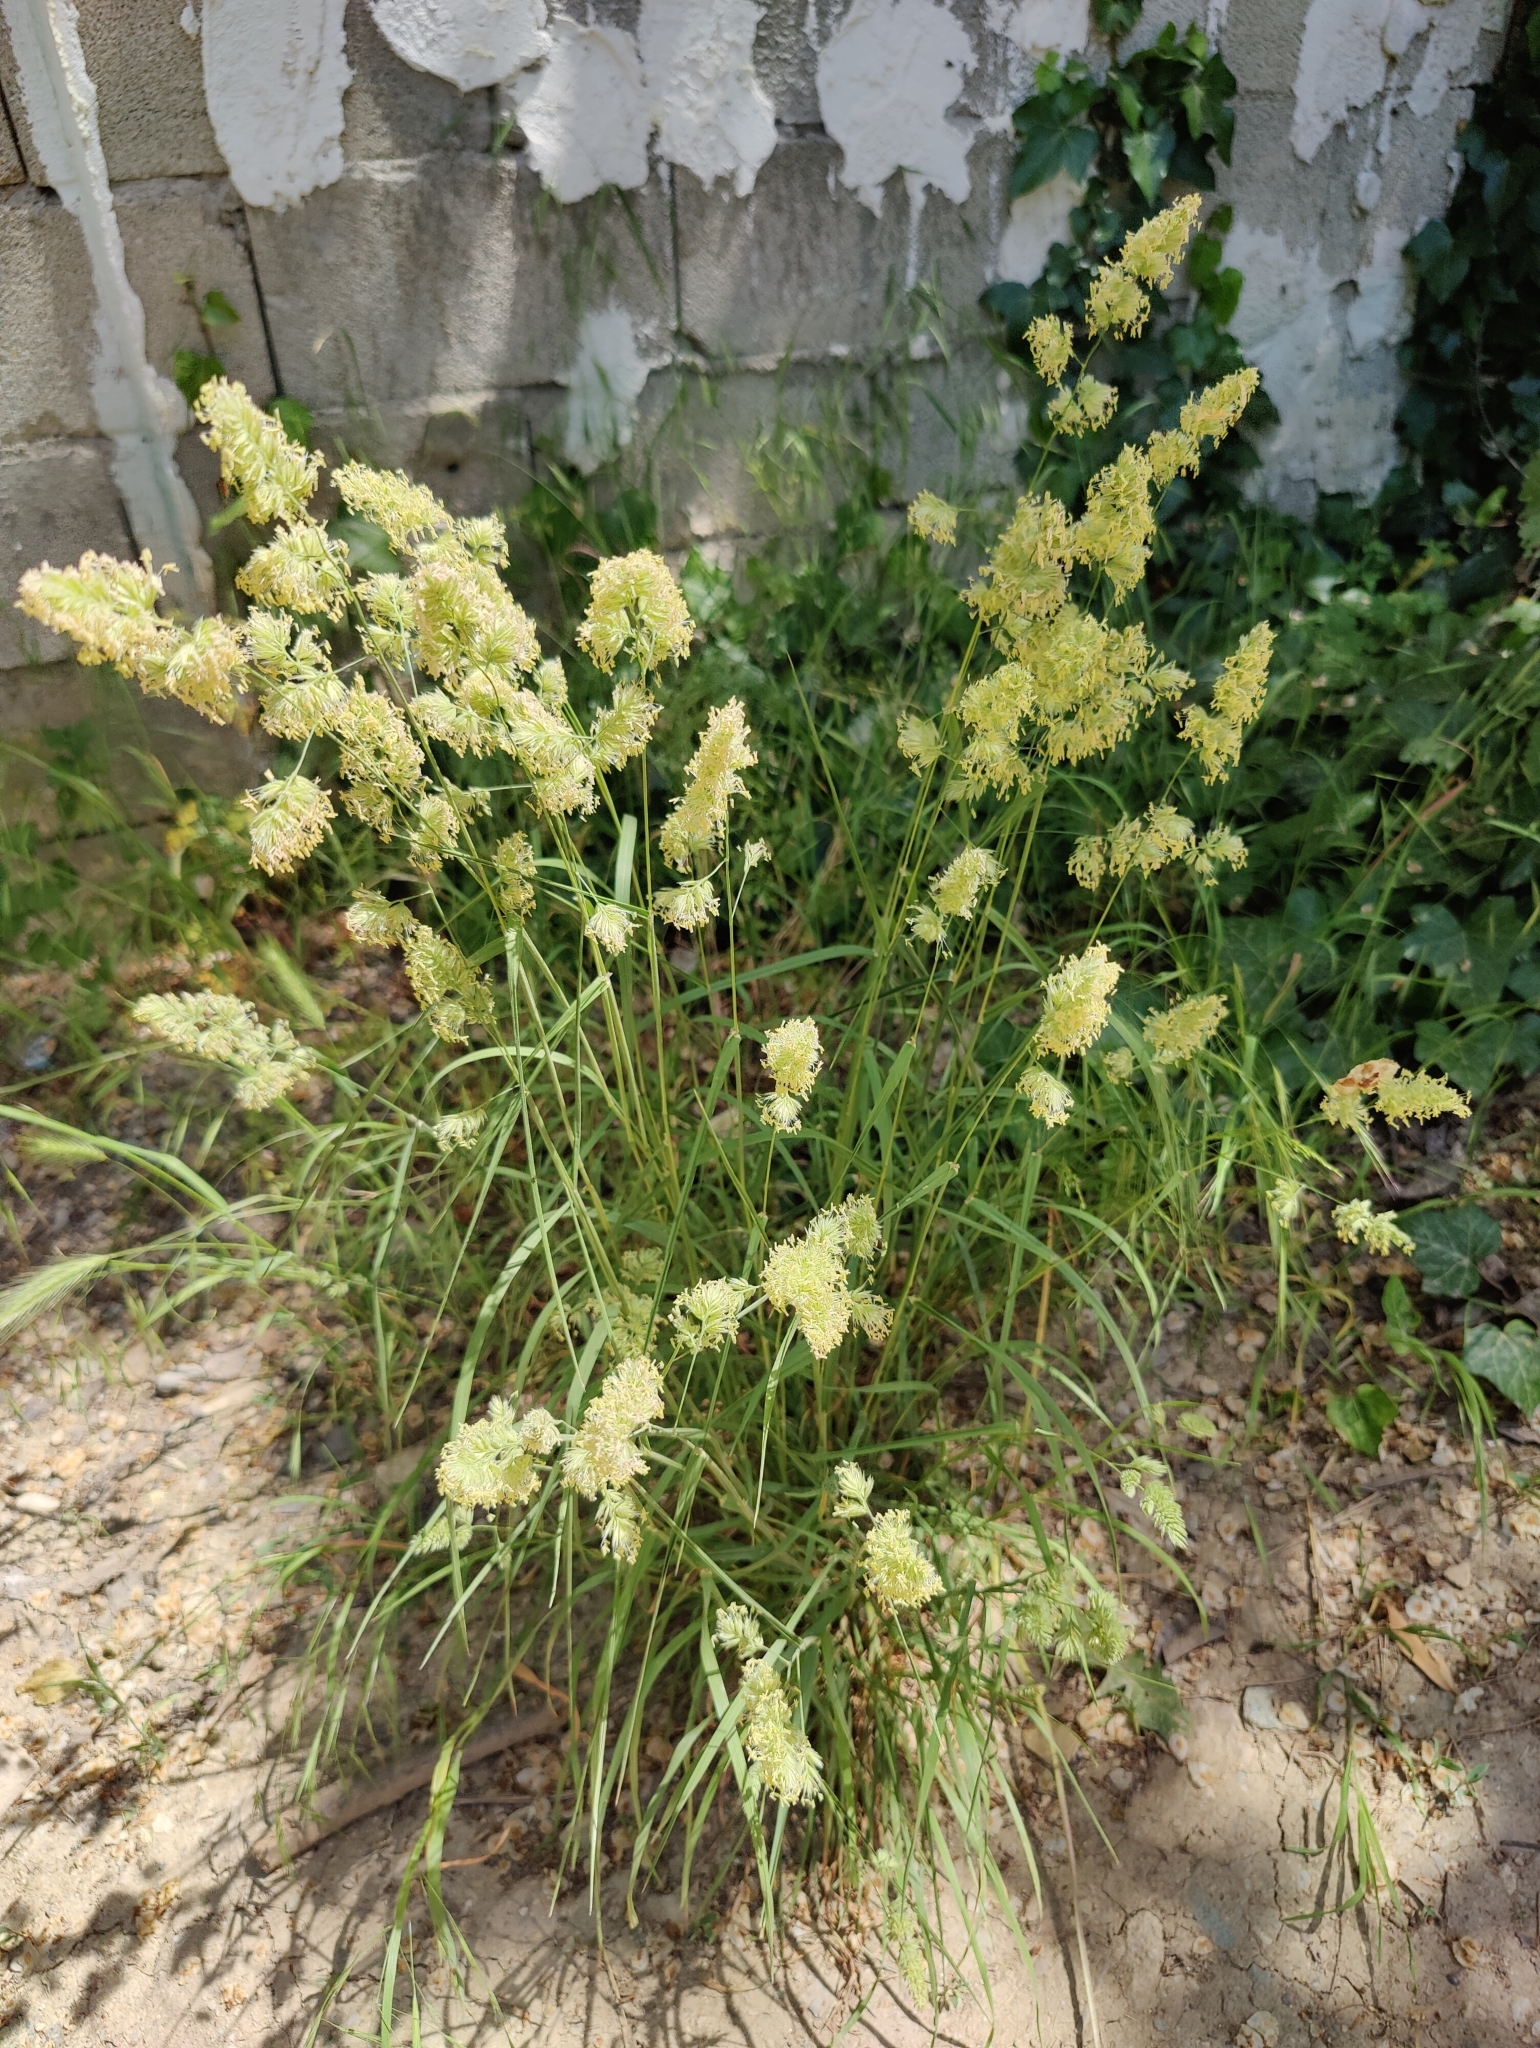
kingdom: Plantae
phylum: Tracheophyta
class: Liliopsida
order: Poales
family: Poaceae
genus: Dactylis
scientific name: Dactylis glomerata
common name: Orchardgrass
